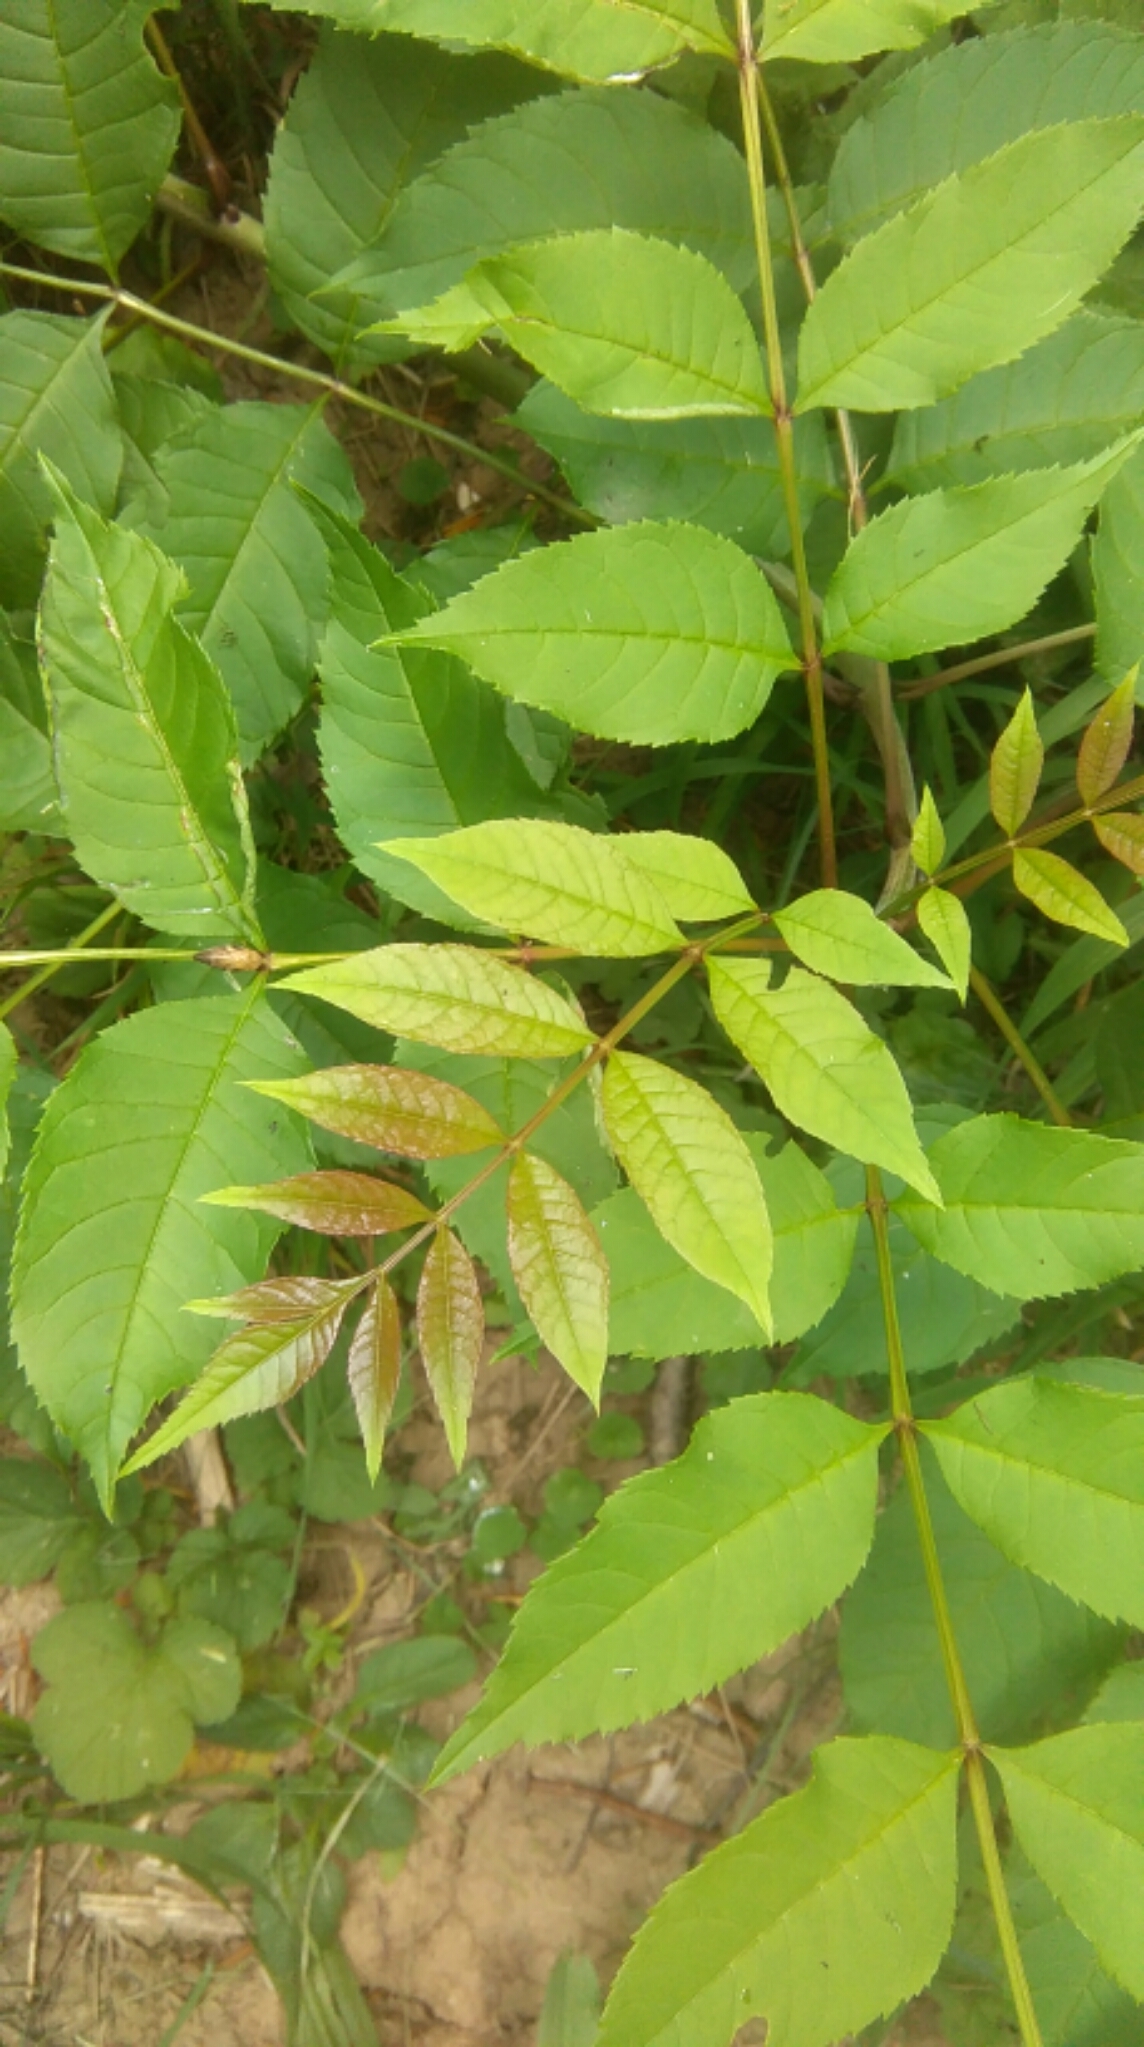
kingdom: Plantae
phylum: Tracheophyta
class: Magnoliopsida
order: Sapindales
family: Simaroubaceae
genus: Ailanthus
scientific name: Ailanthus altissima
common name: Tree-of-heaven
